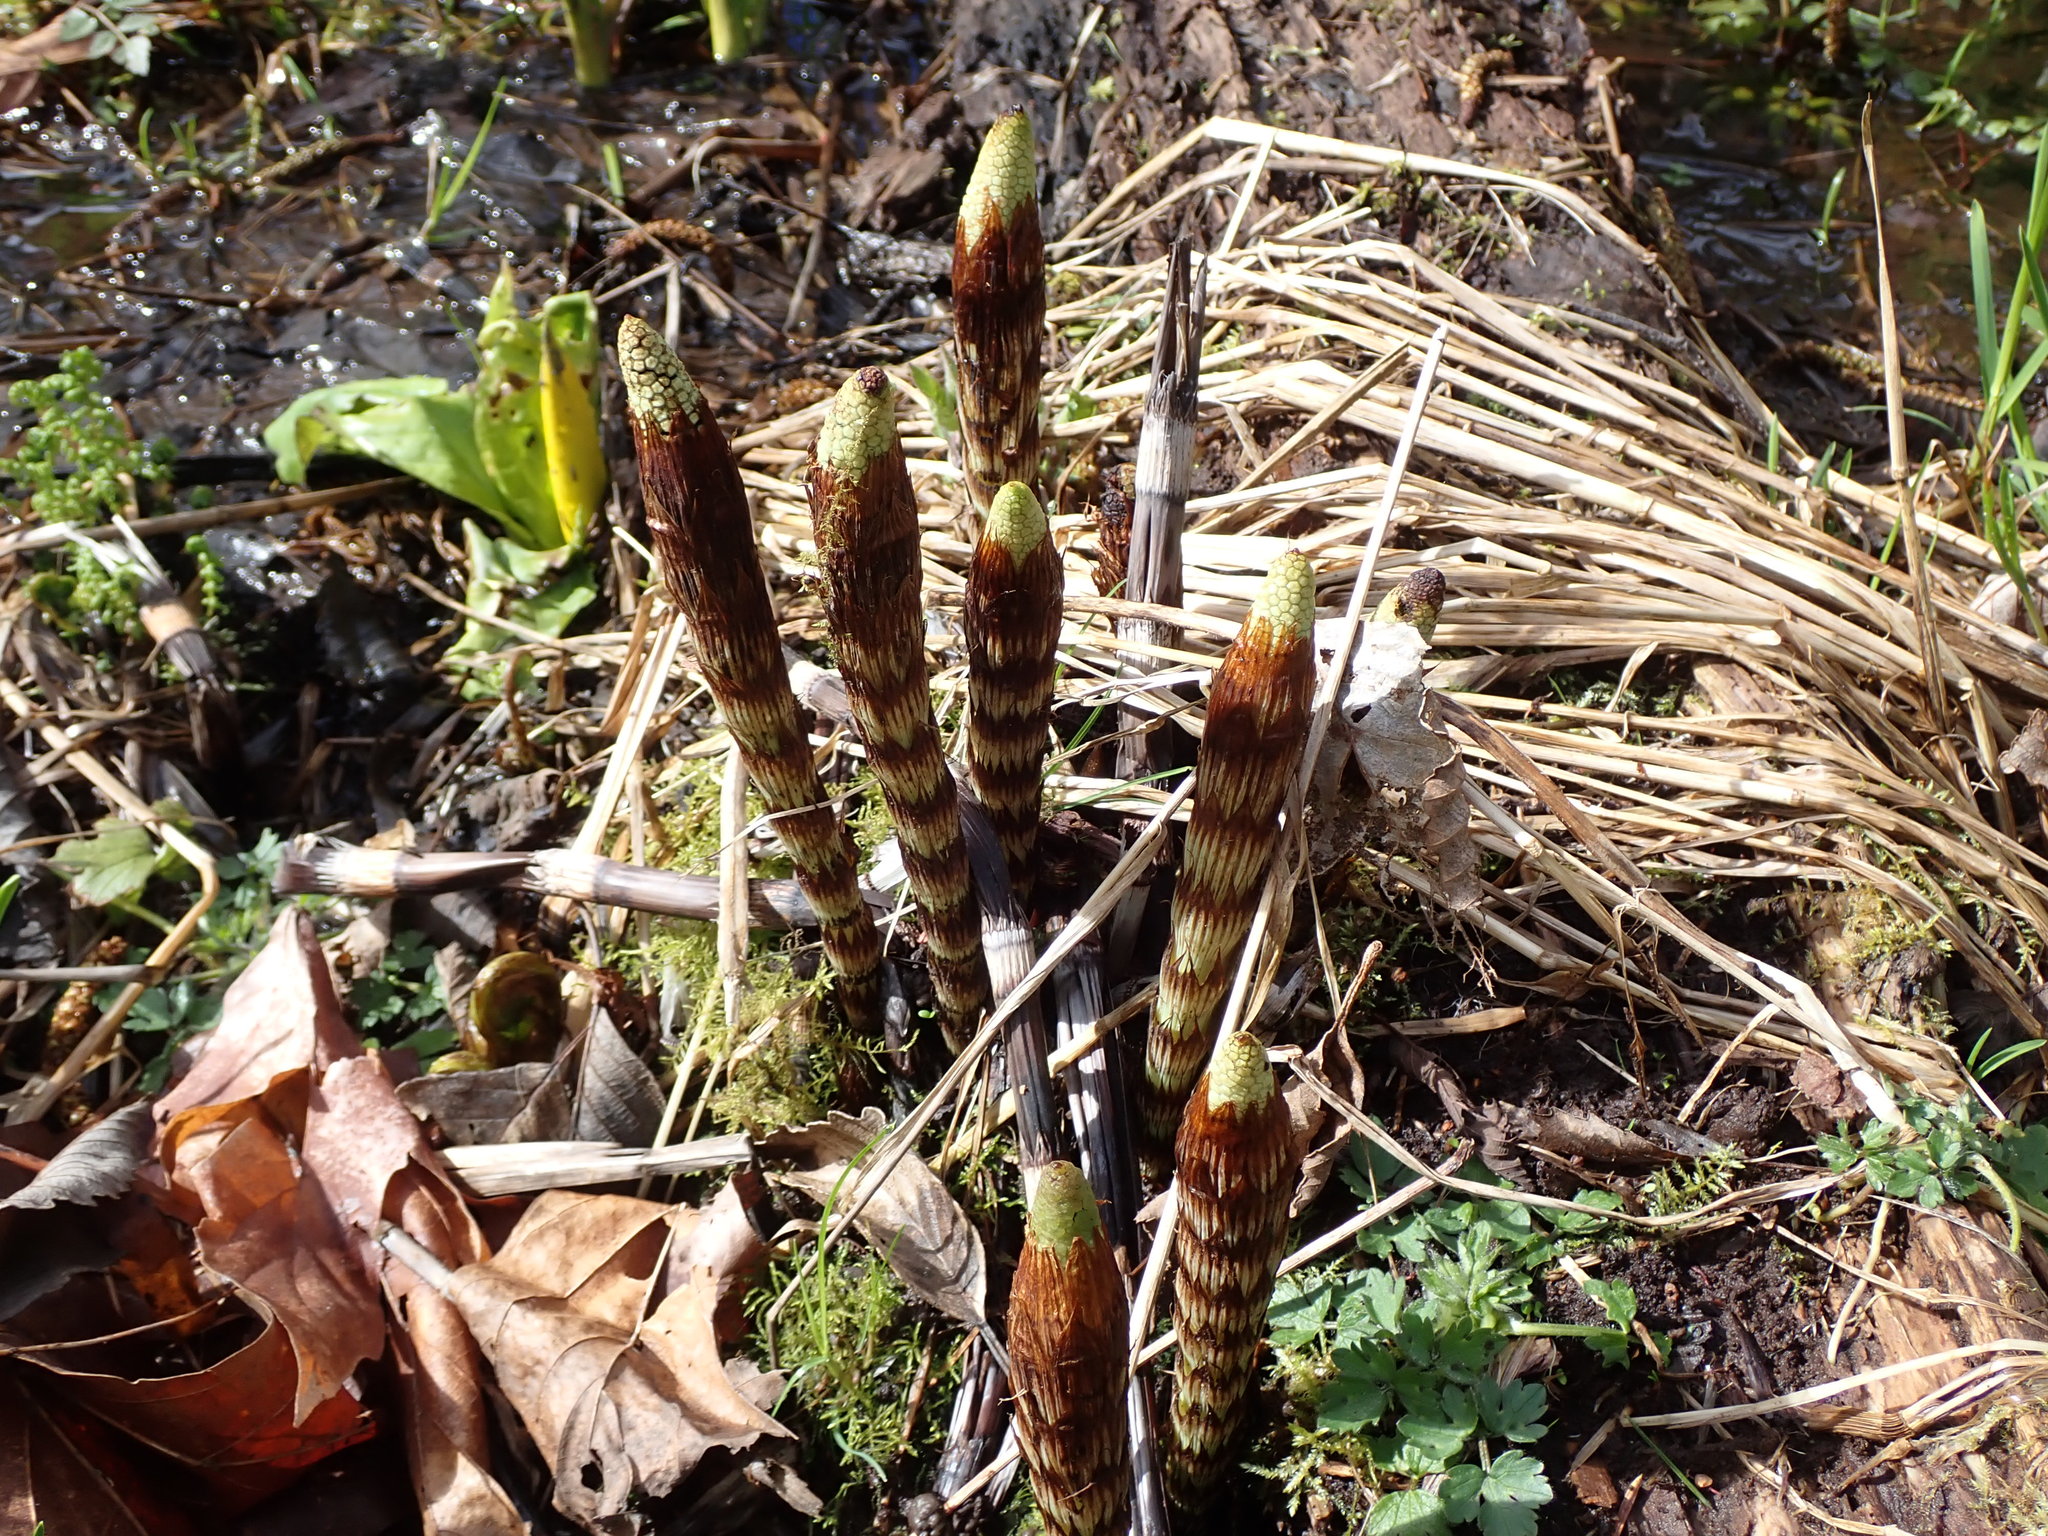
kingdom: Plantae
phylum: Tracheophyta
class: Polypodiopsida
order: Equisetales
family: Equisetaceae
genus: Equisetum
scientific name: Equisetum telmateia
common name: Great horsetail
